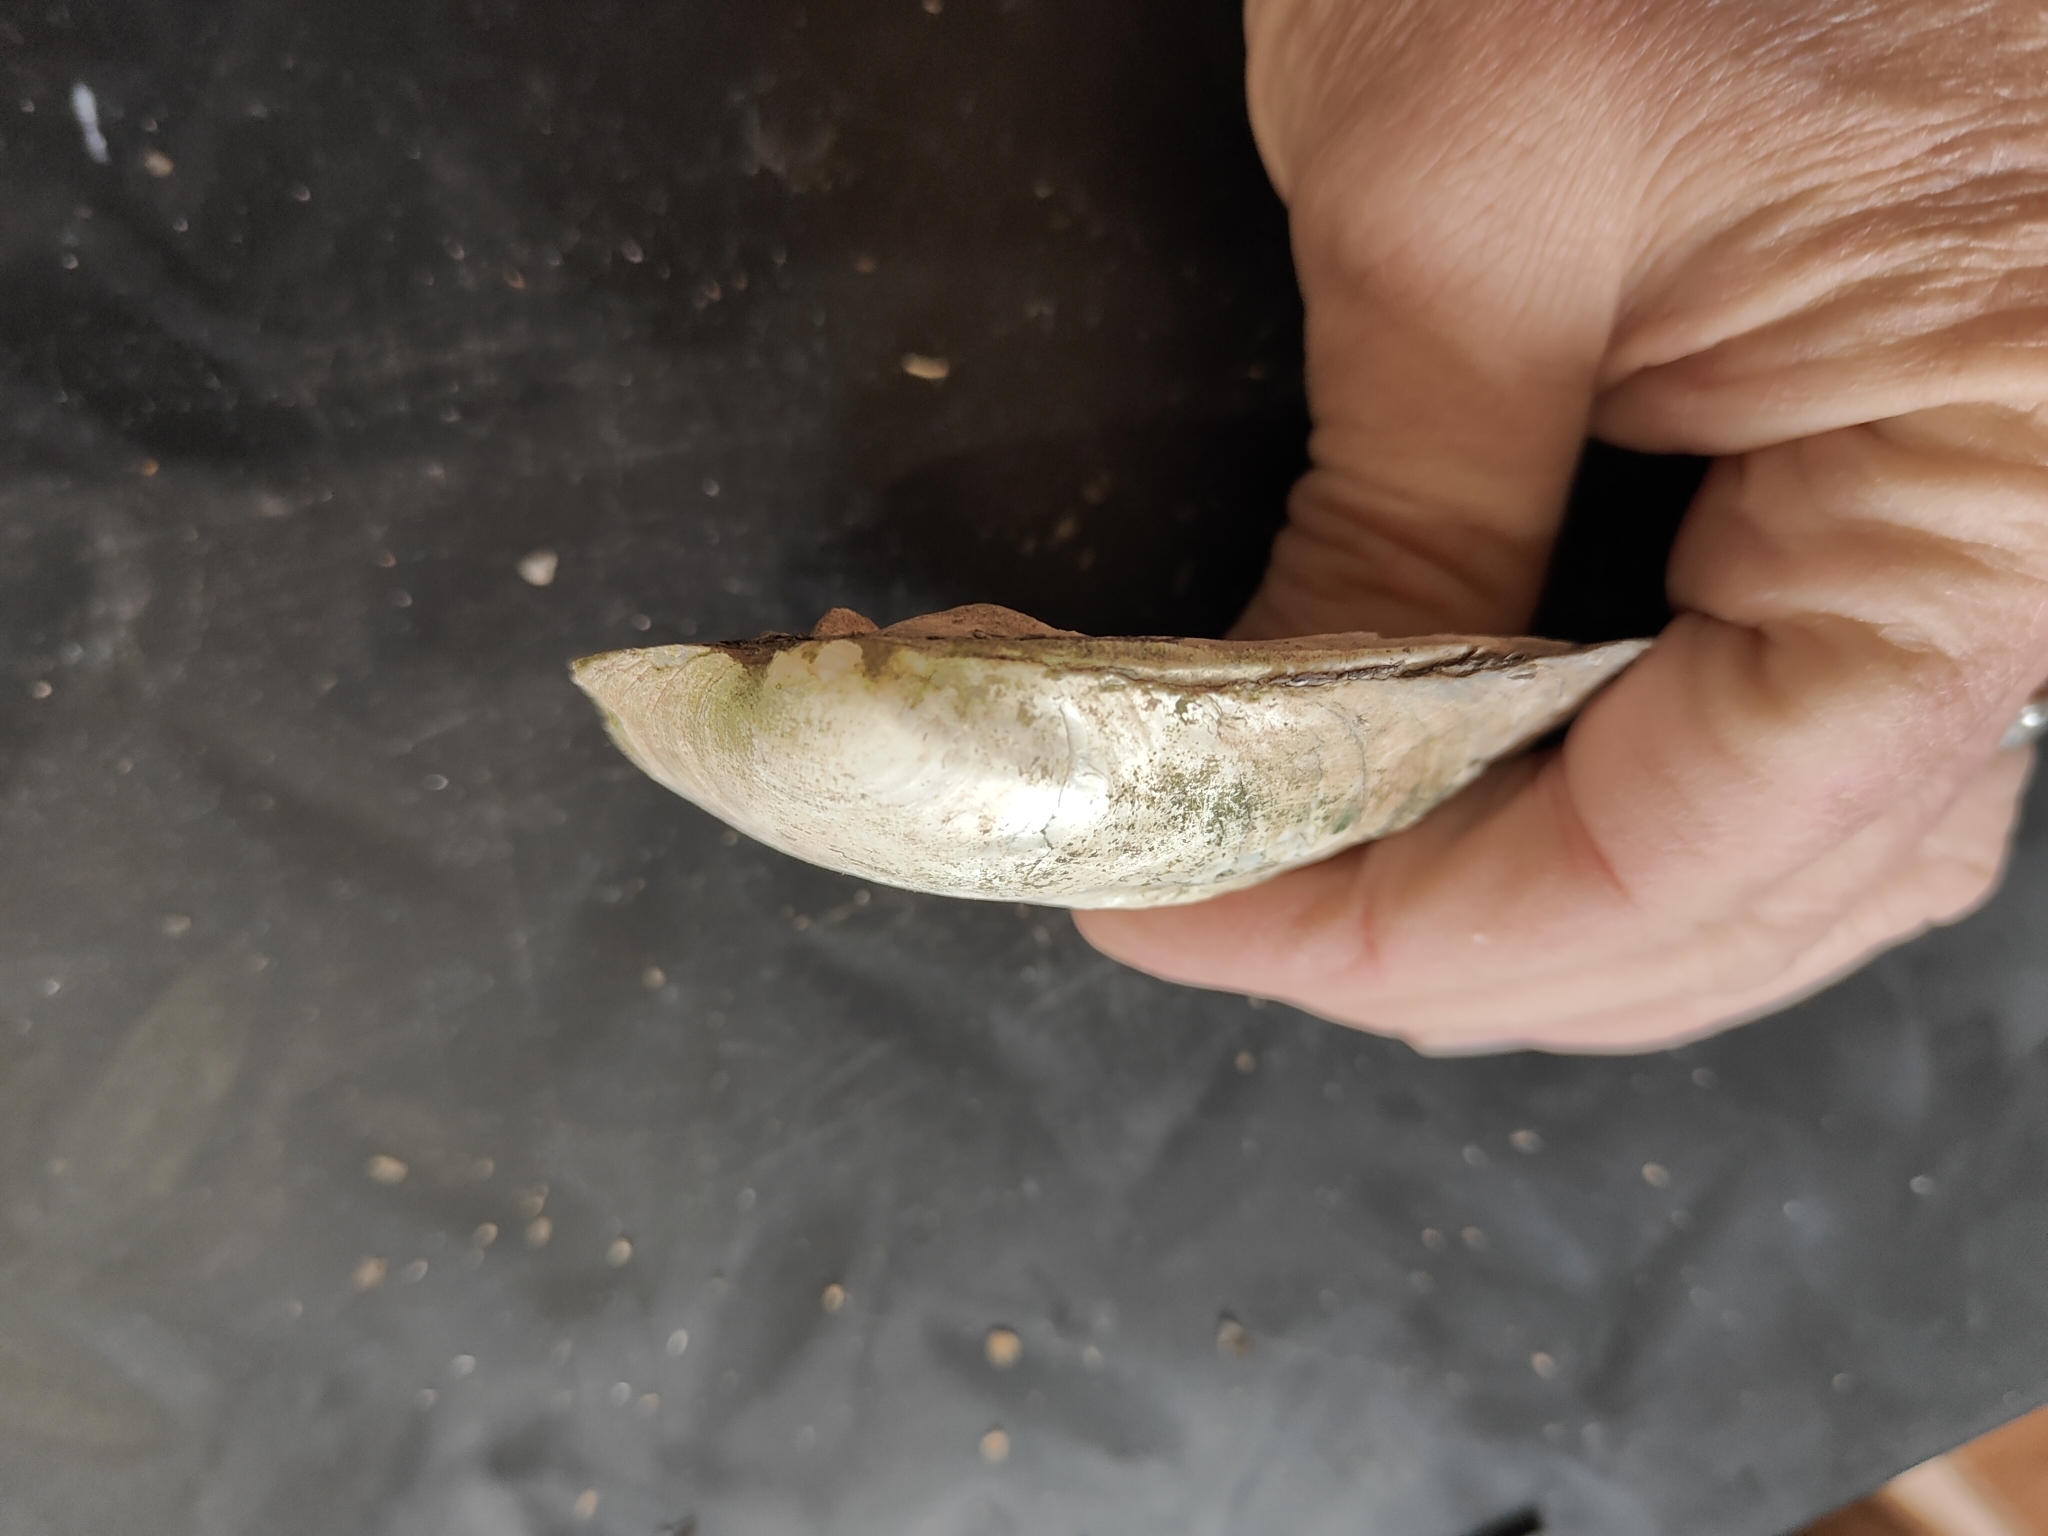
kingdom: Animalia
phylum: Mollusca
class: Bivalvia
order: Unionida
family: Unionidae
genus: Amblema
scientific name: Amblema plicata
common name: Threeridge
